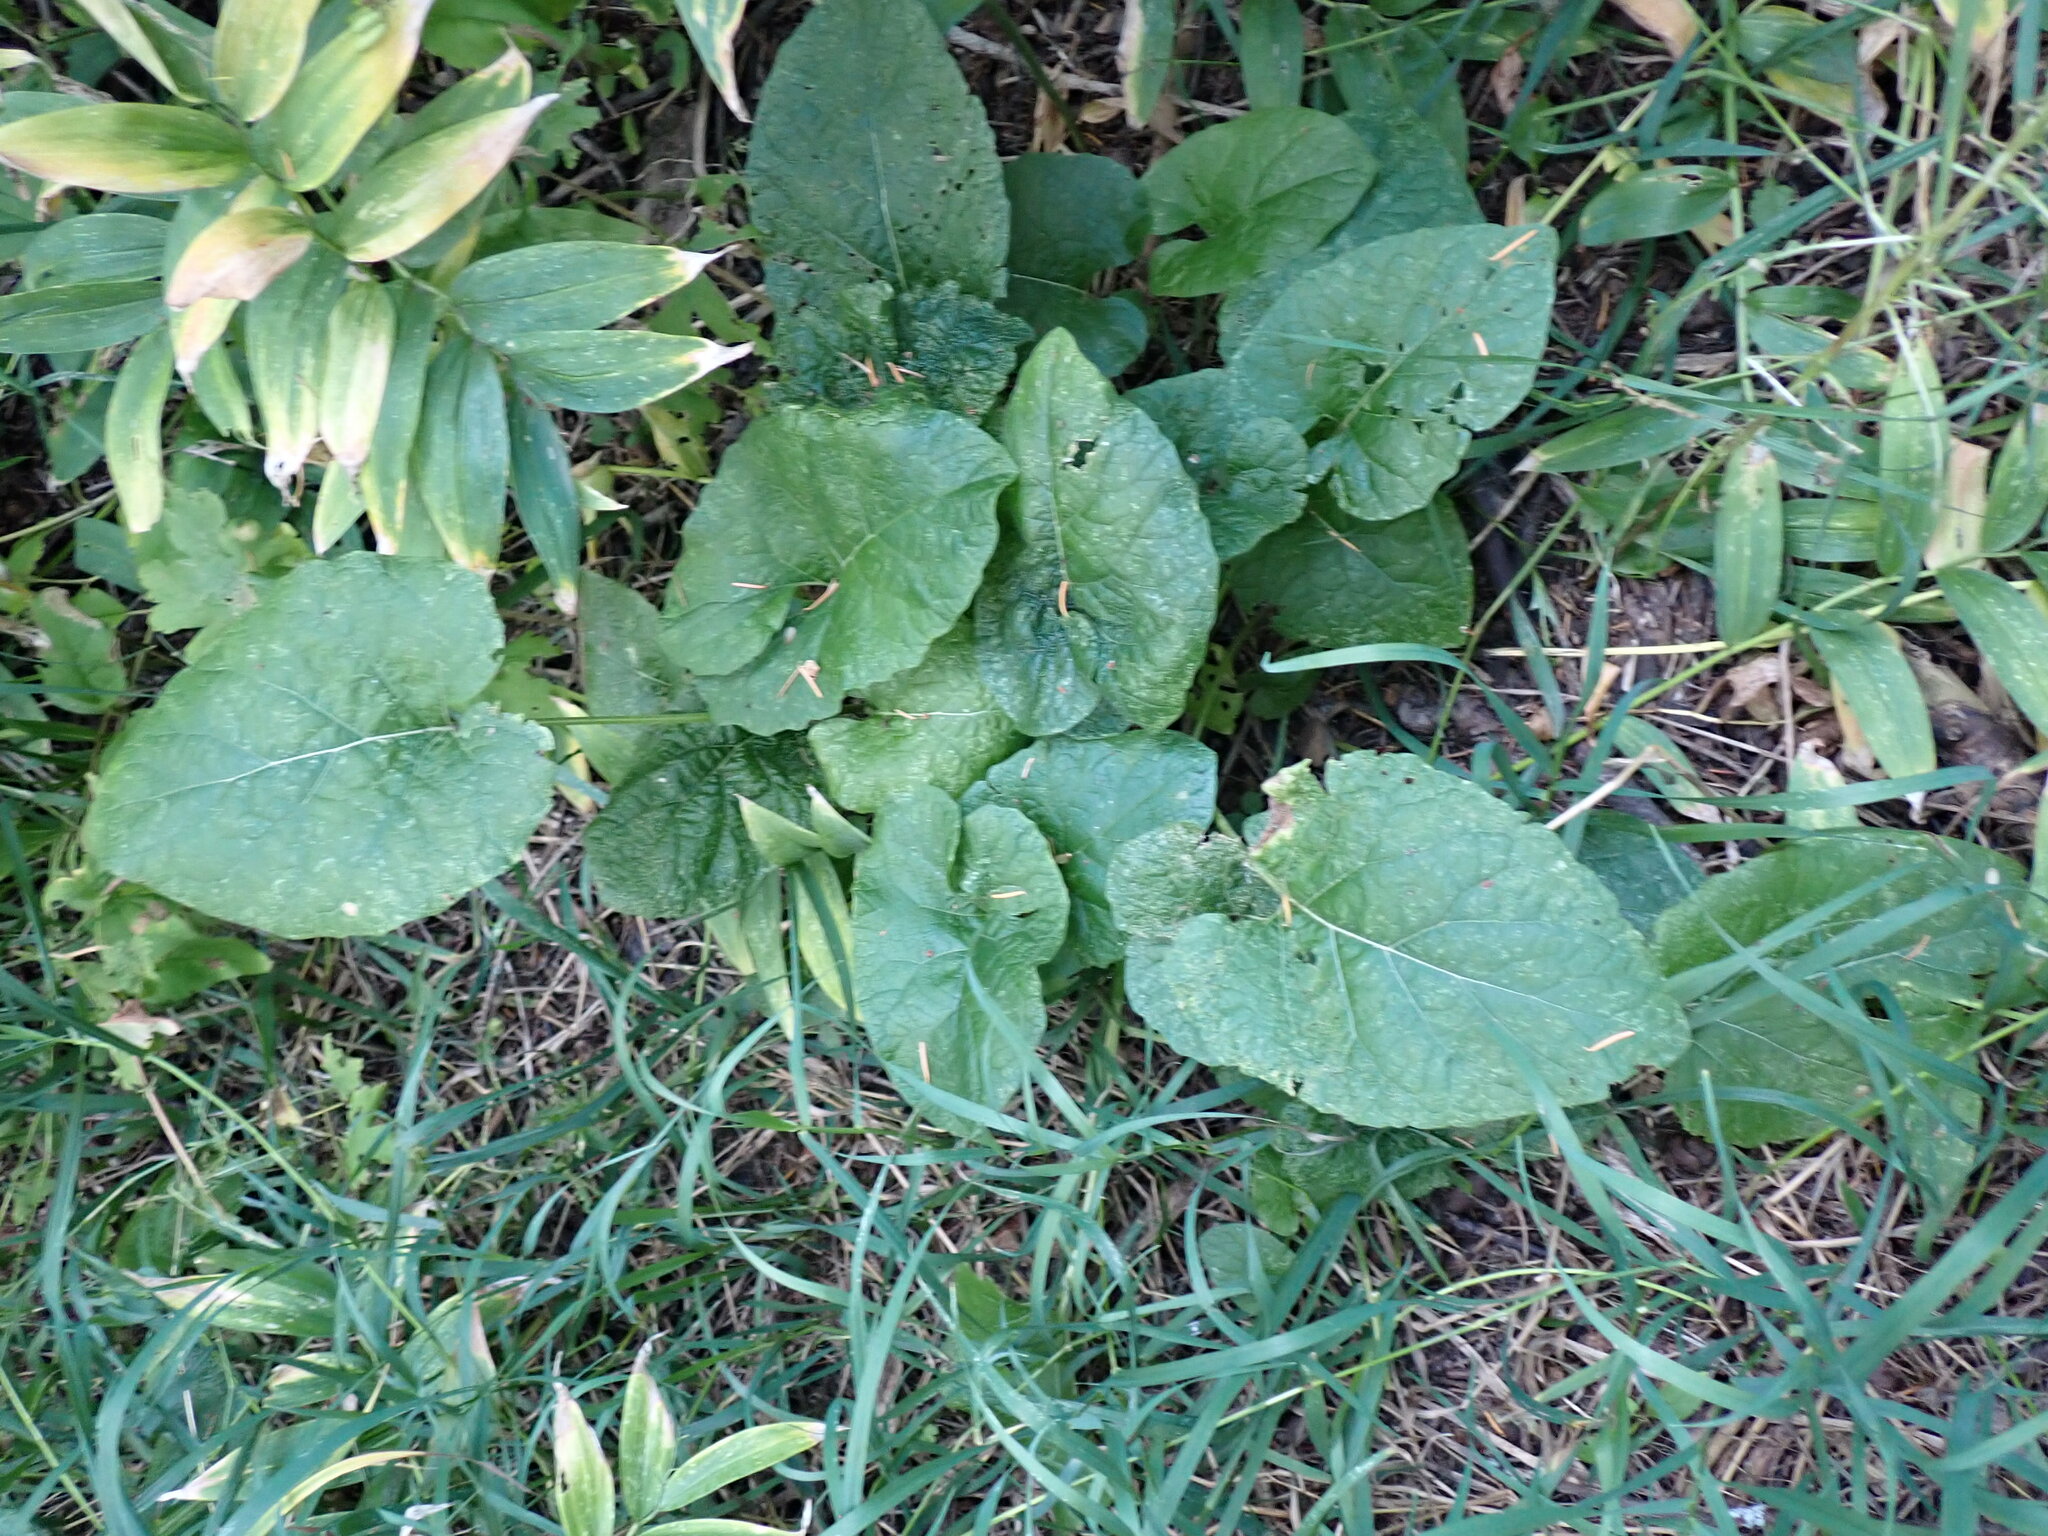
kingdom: Plantae
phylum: Tracheophyta
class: Magnoliopsida
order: Asterales
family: Asteraceae
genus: Arctium
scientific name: Arctium
